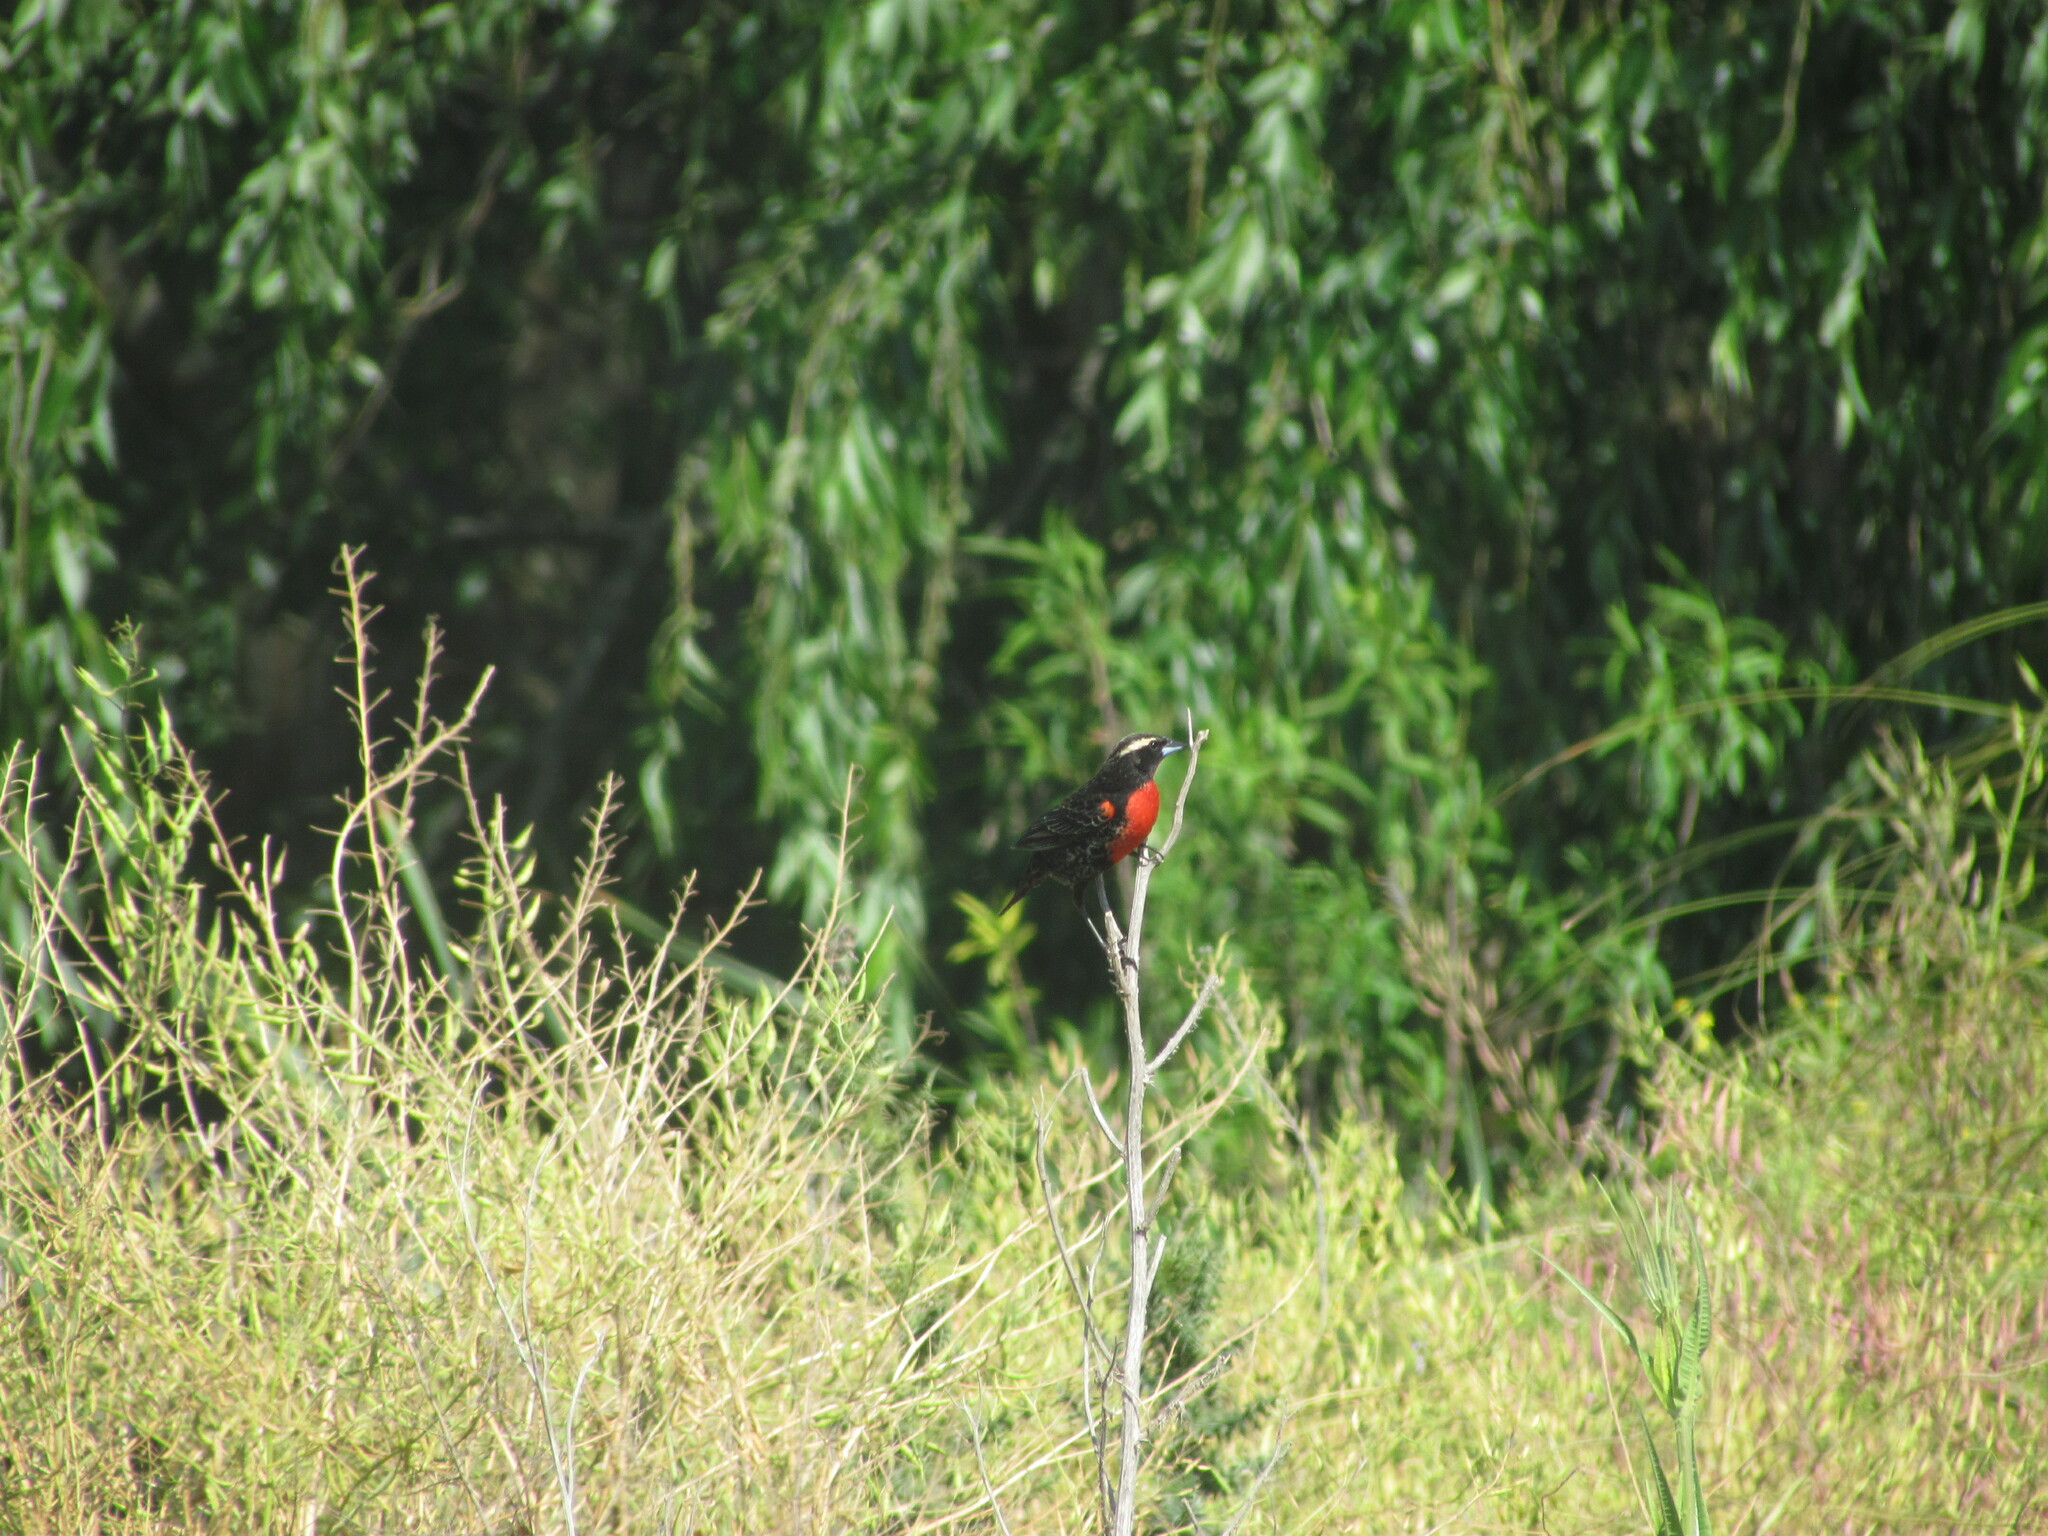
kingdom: Animalia
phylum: Chordata
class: Aves
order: Passeriformes
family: Icteridae
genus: Sturnella
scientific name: Sturnella superciliaris
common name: White-browed blackbird
